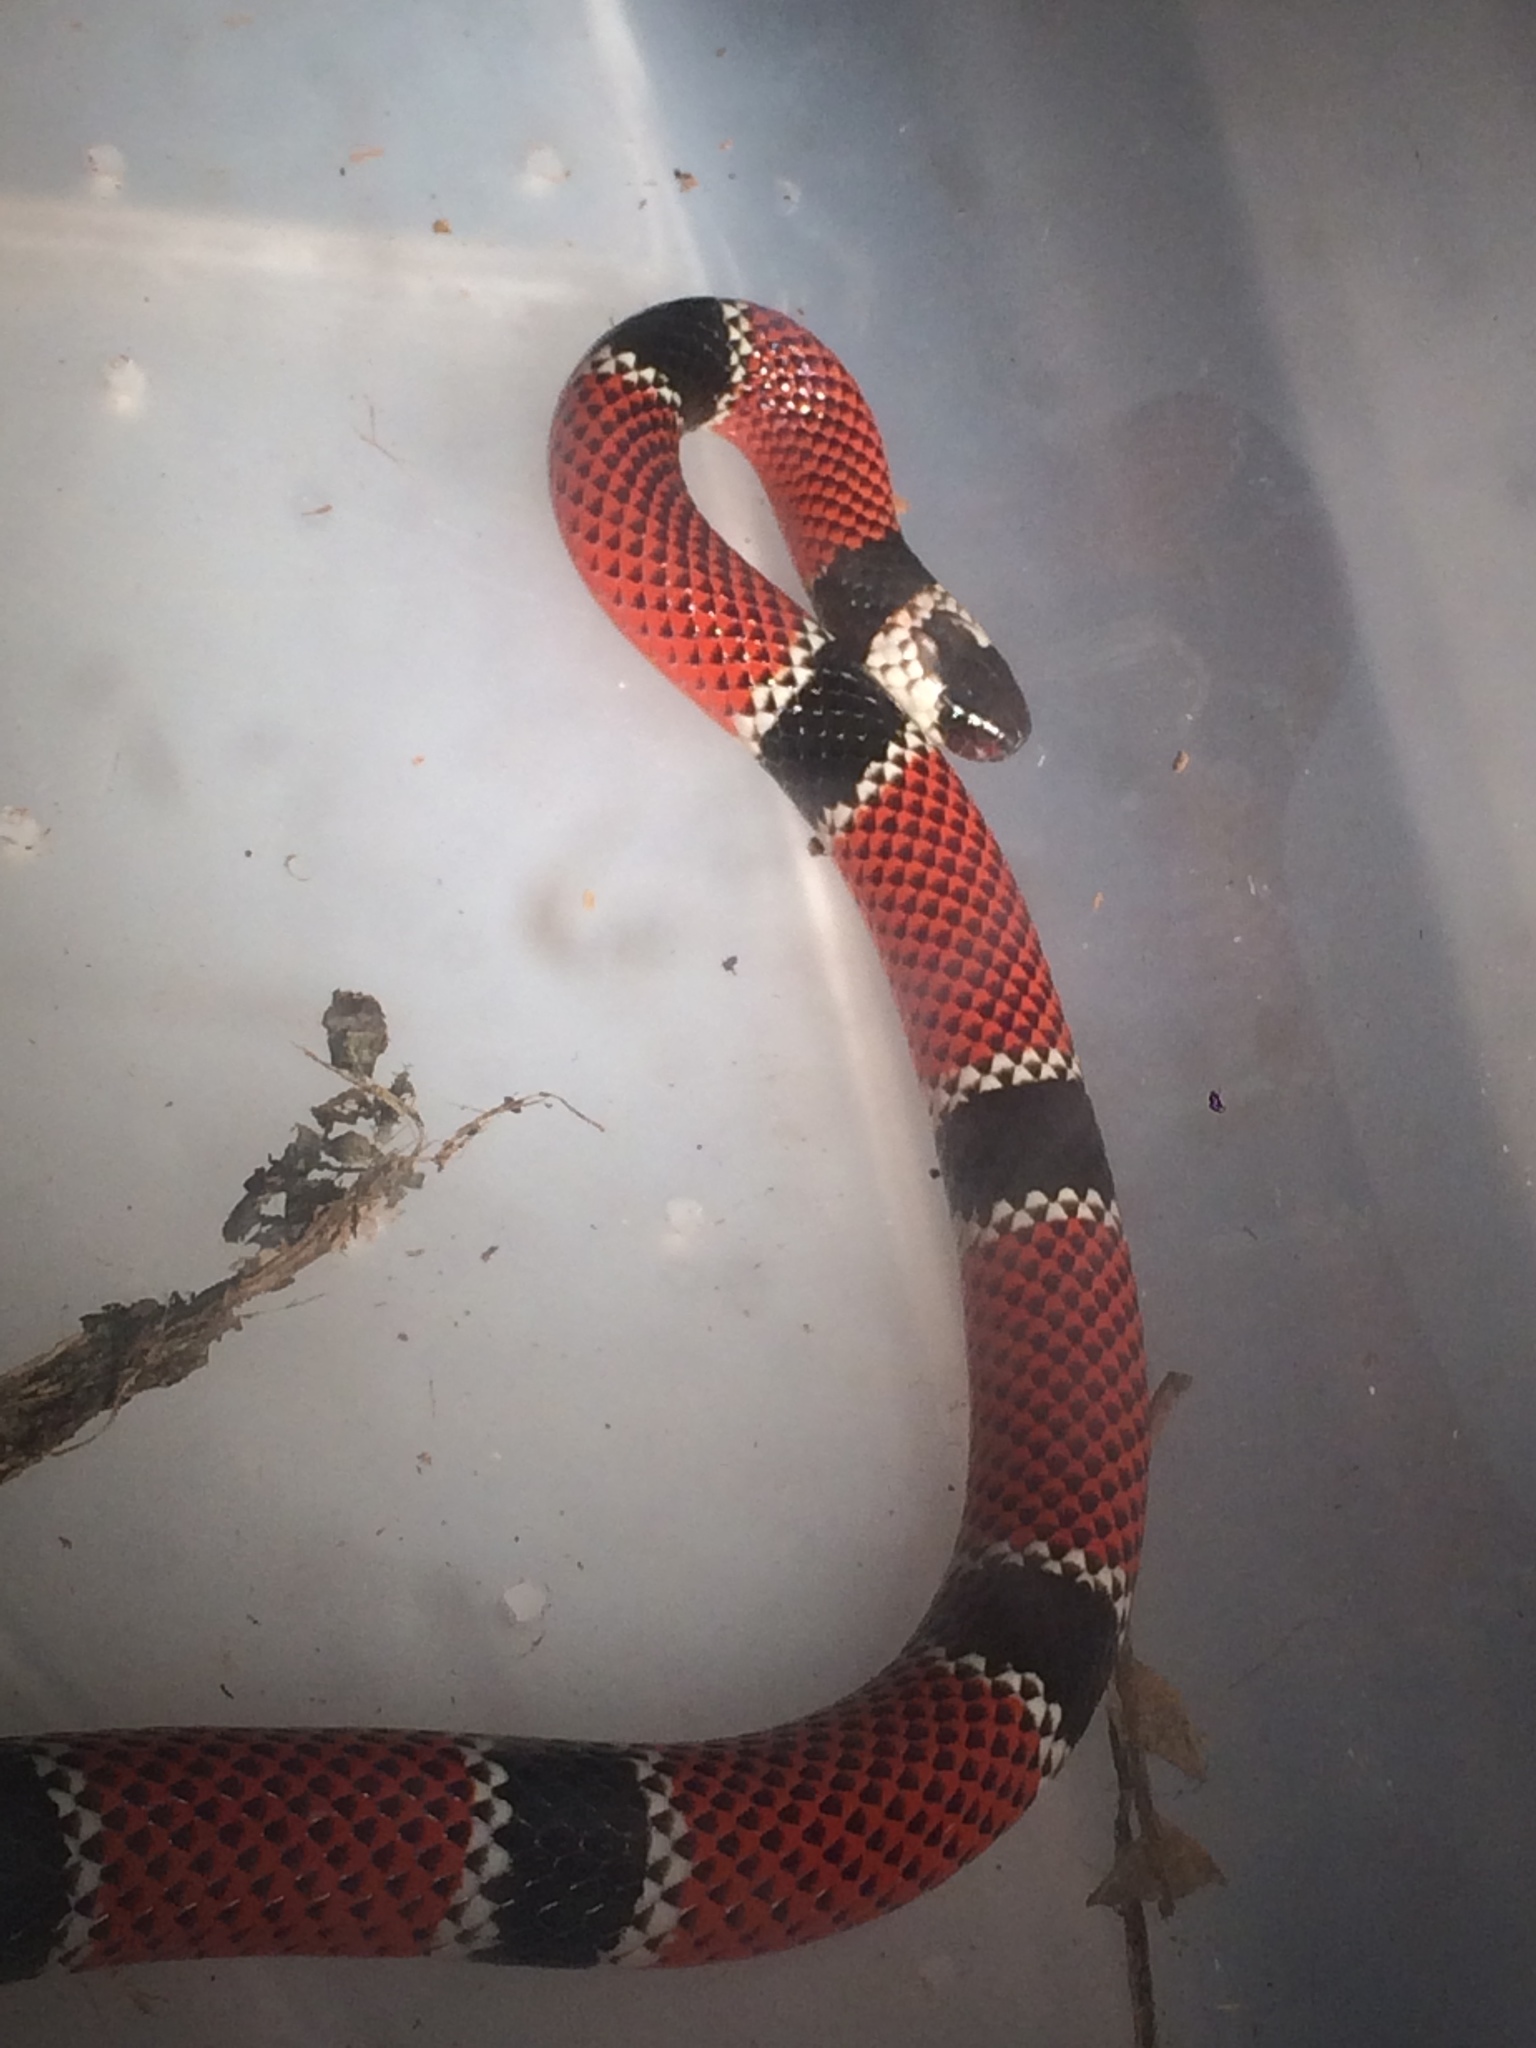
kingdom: Animalia
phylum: Chordata
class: Squamata
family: Elapidae
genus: Micrurus
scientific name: Micrurus corallinus
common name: Painted coral snake
